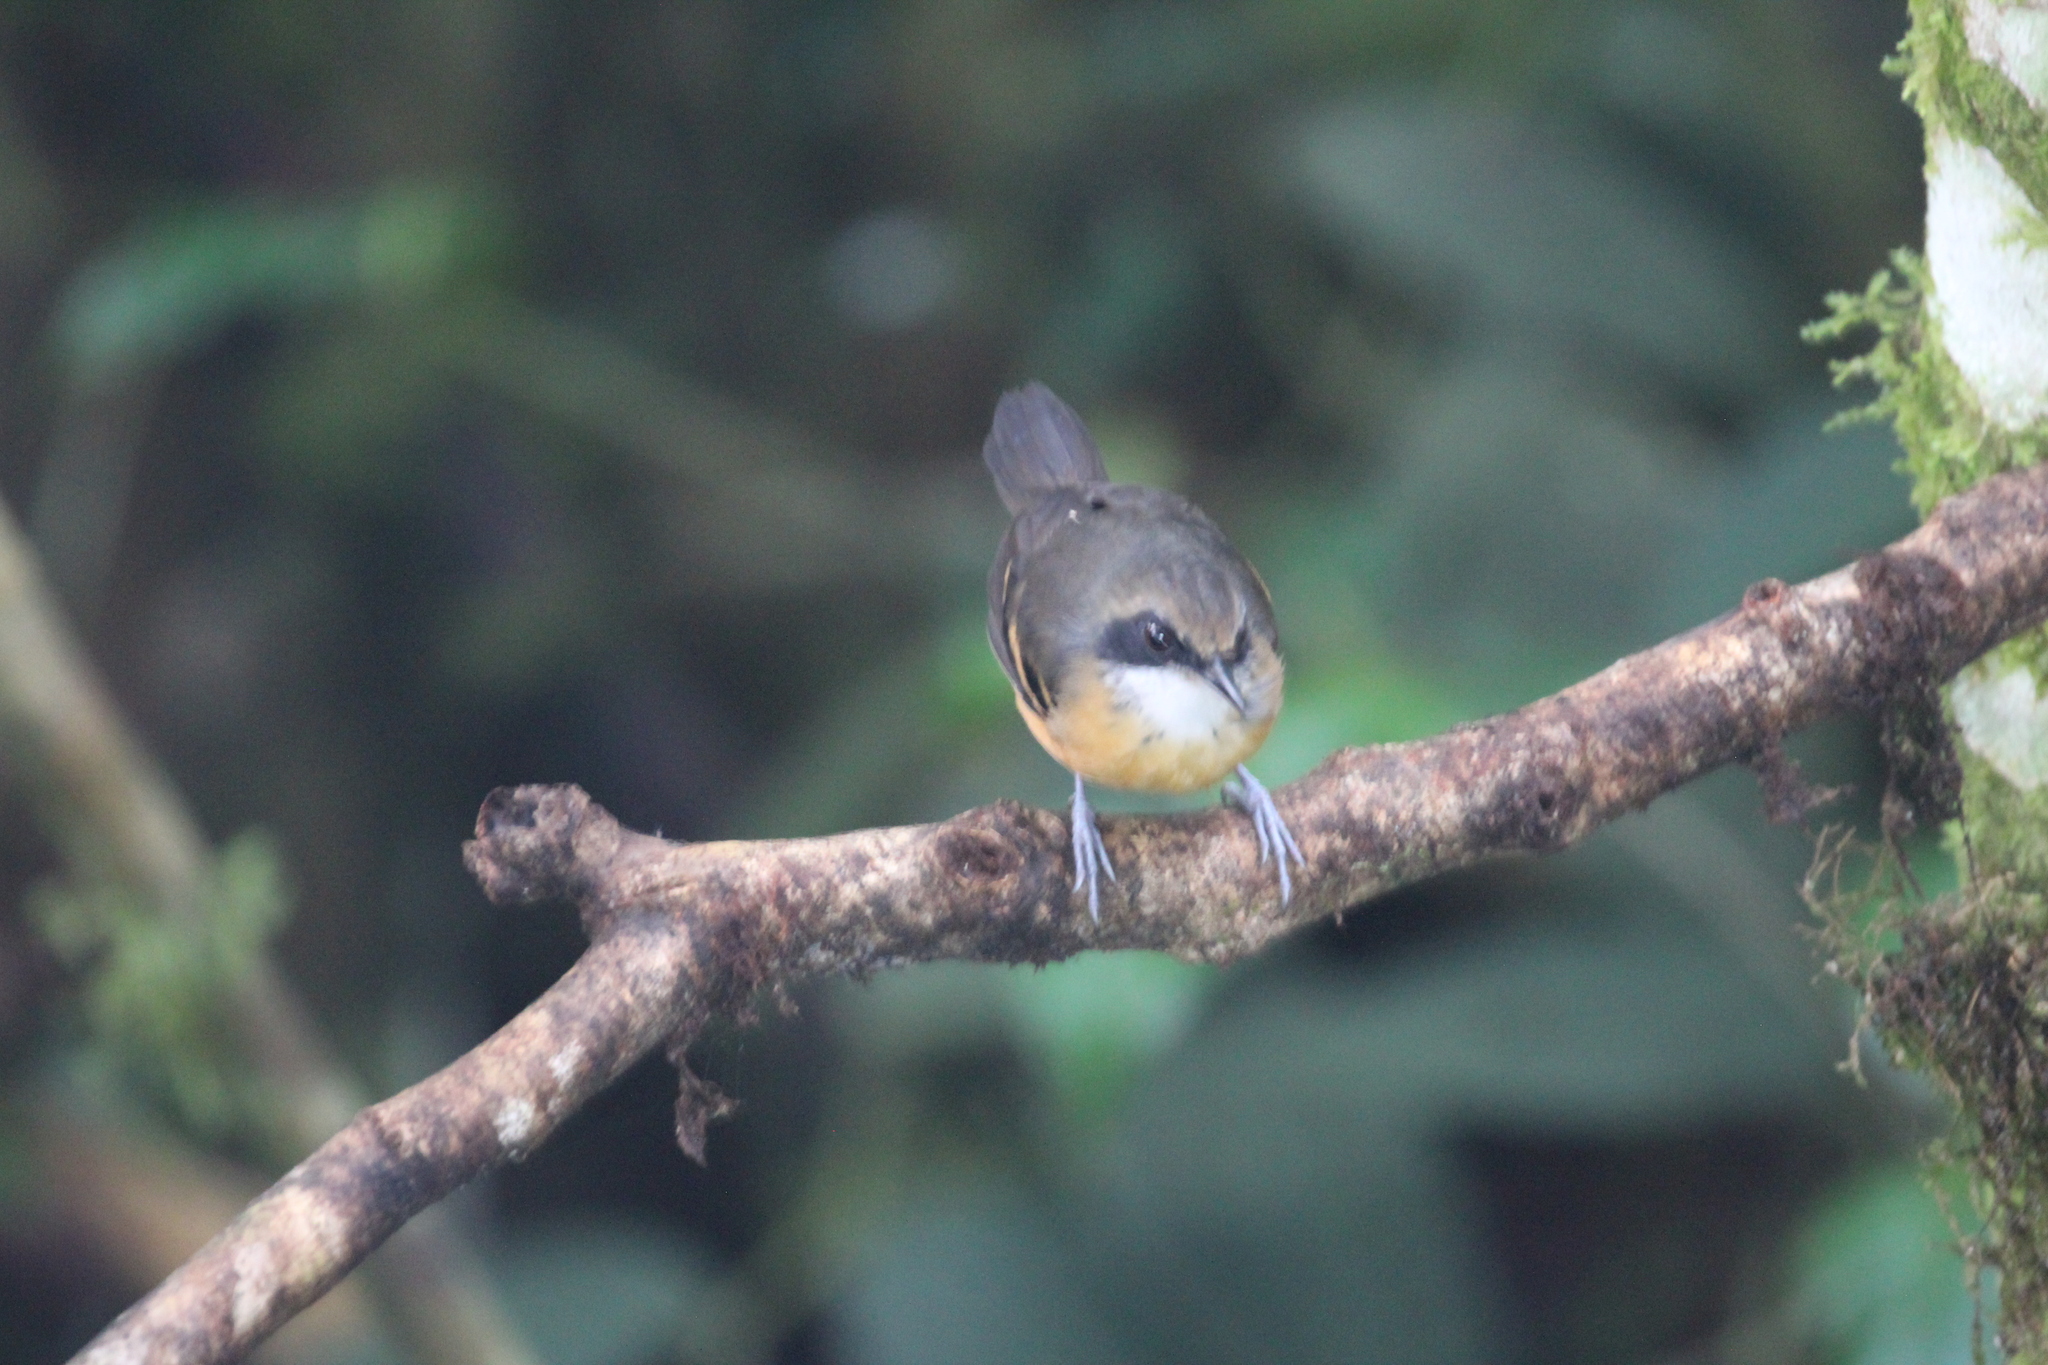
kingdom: Animalia
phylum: Chordata
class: Aves
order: Passeriformes
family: Thamnophilidae
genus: Myrmoborus
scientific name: Myrmoborus myotherinus
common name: Black-faced antbird
